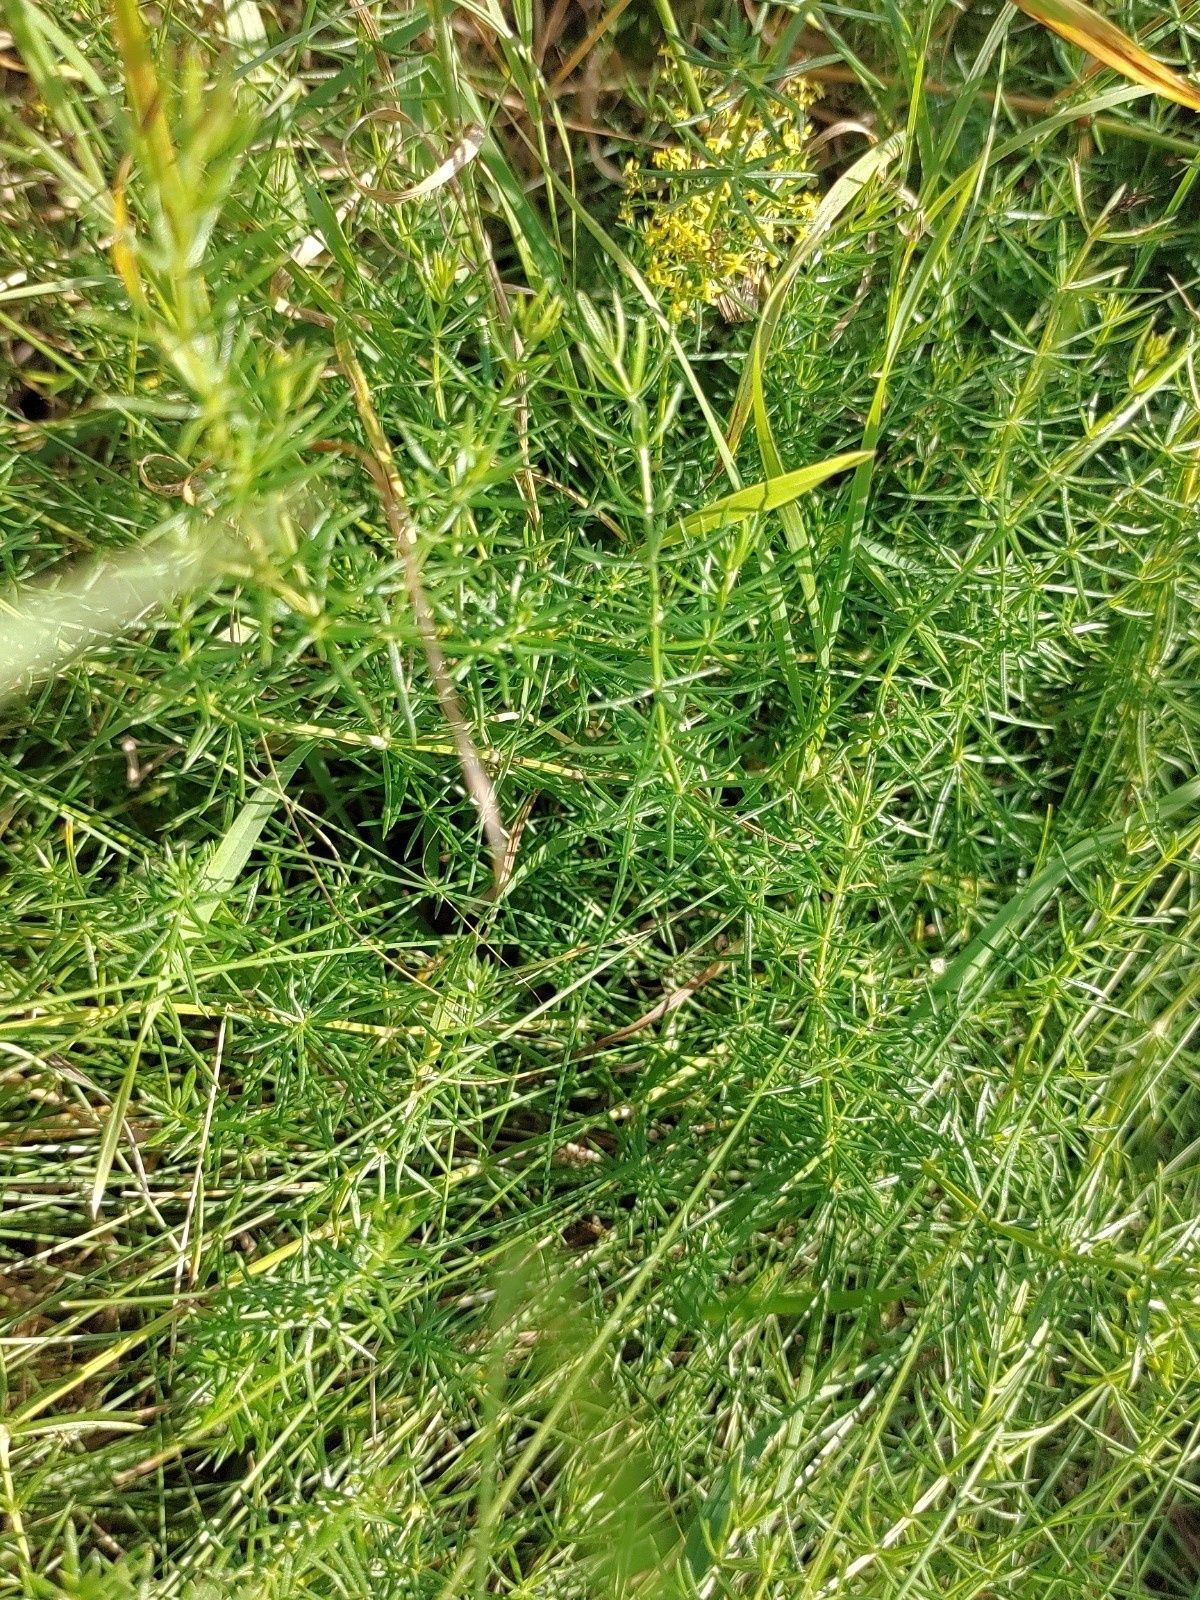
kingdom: Plantae
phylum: Tracheophyta
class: Magnoliopsida
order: Gentianales
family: Rubiaceae
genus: Galium
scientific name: Galium verum
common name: Lady's bedstraw
